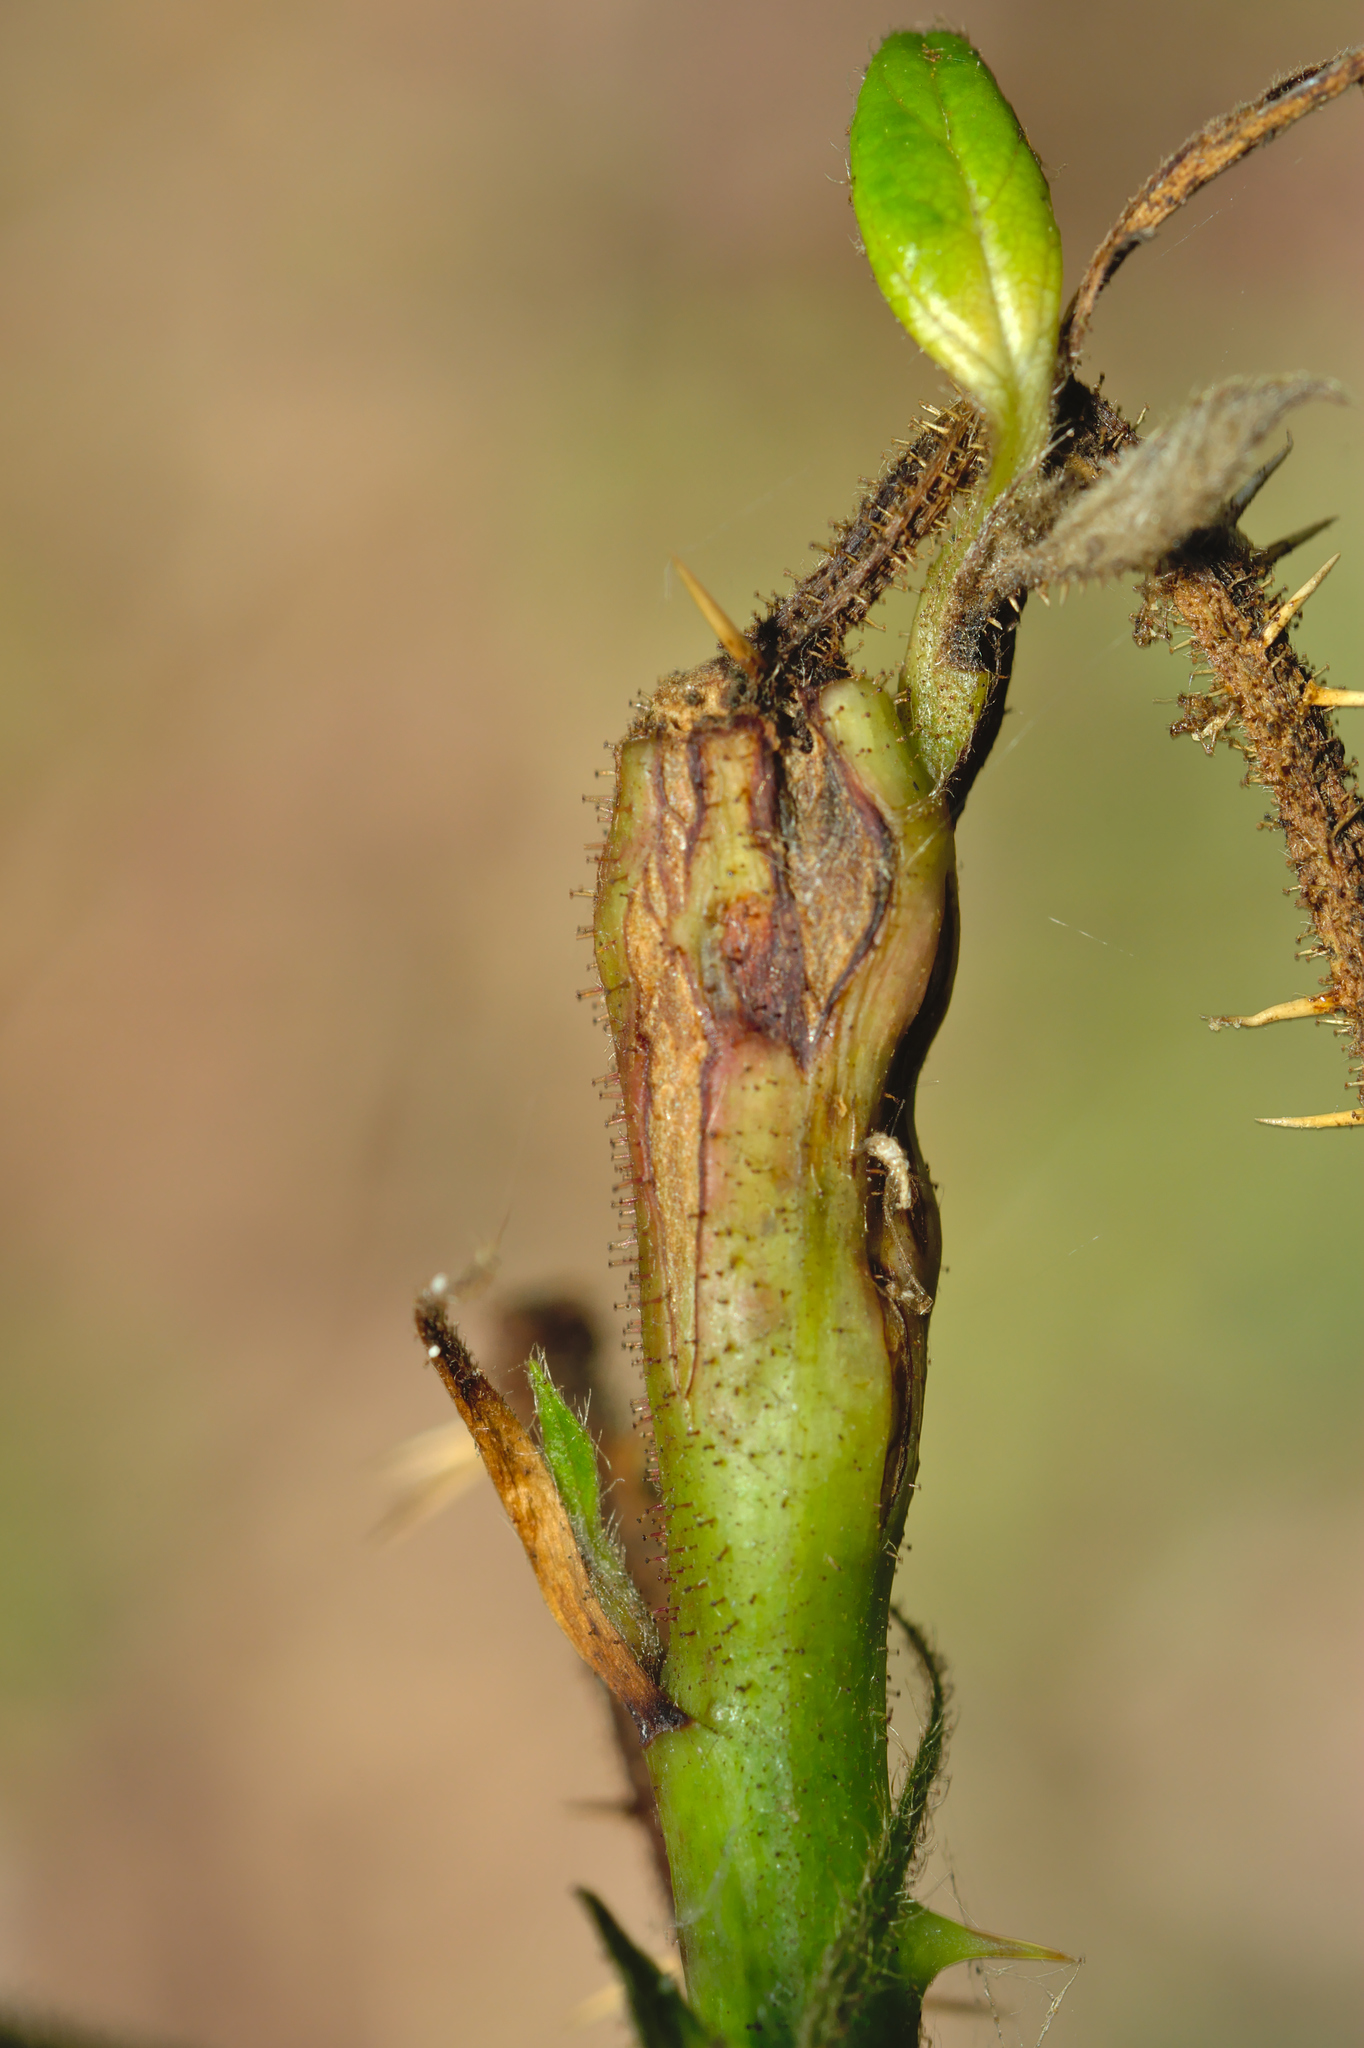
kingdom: Animalia
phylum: Arthropoda
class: Insecta
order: Diptera
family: Cecidomyiidae
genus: Lasioptera
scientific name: Lasioptera rubi
